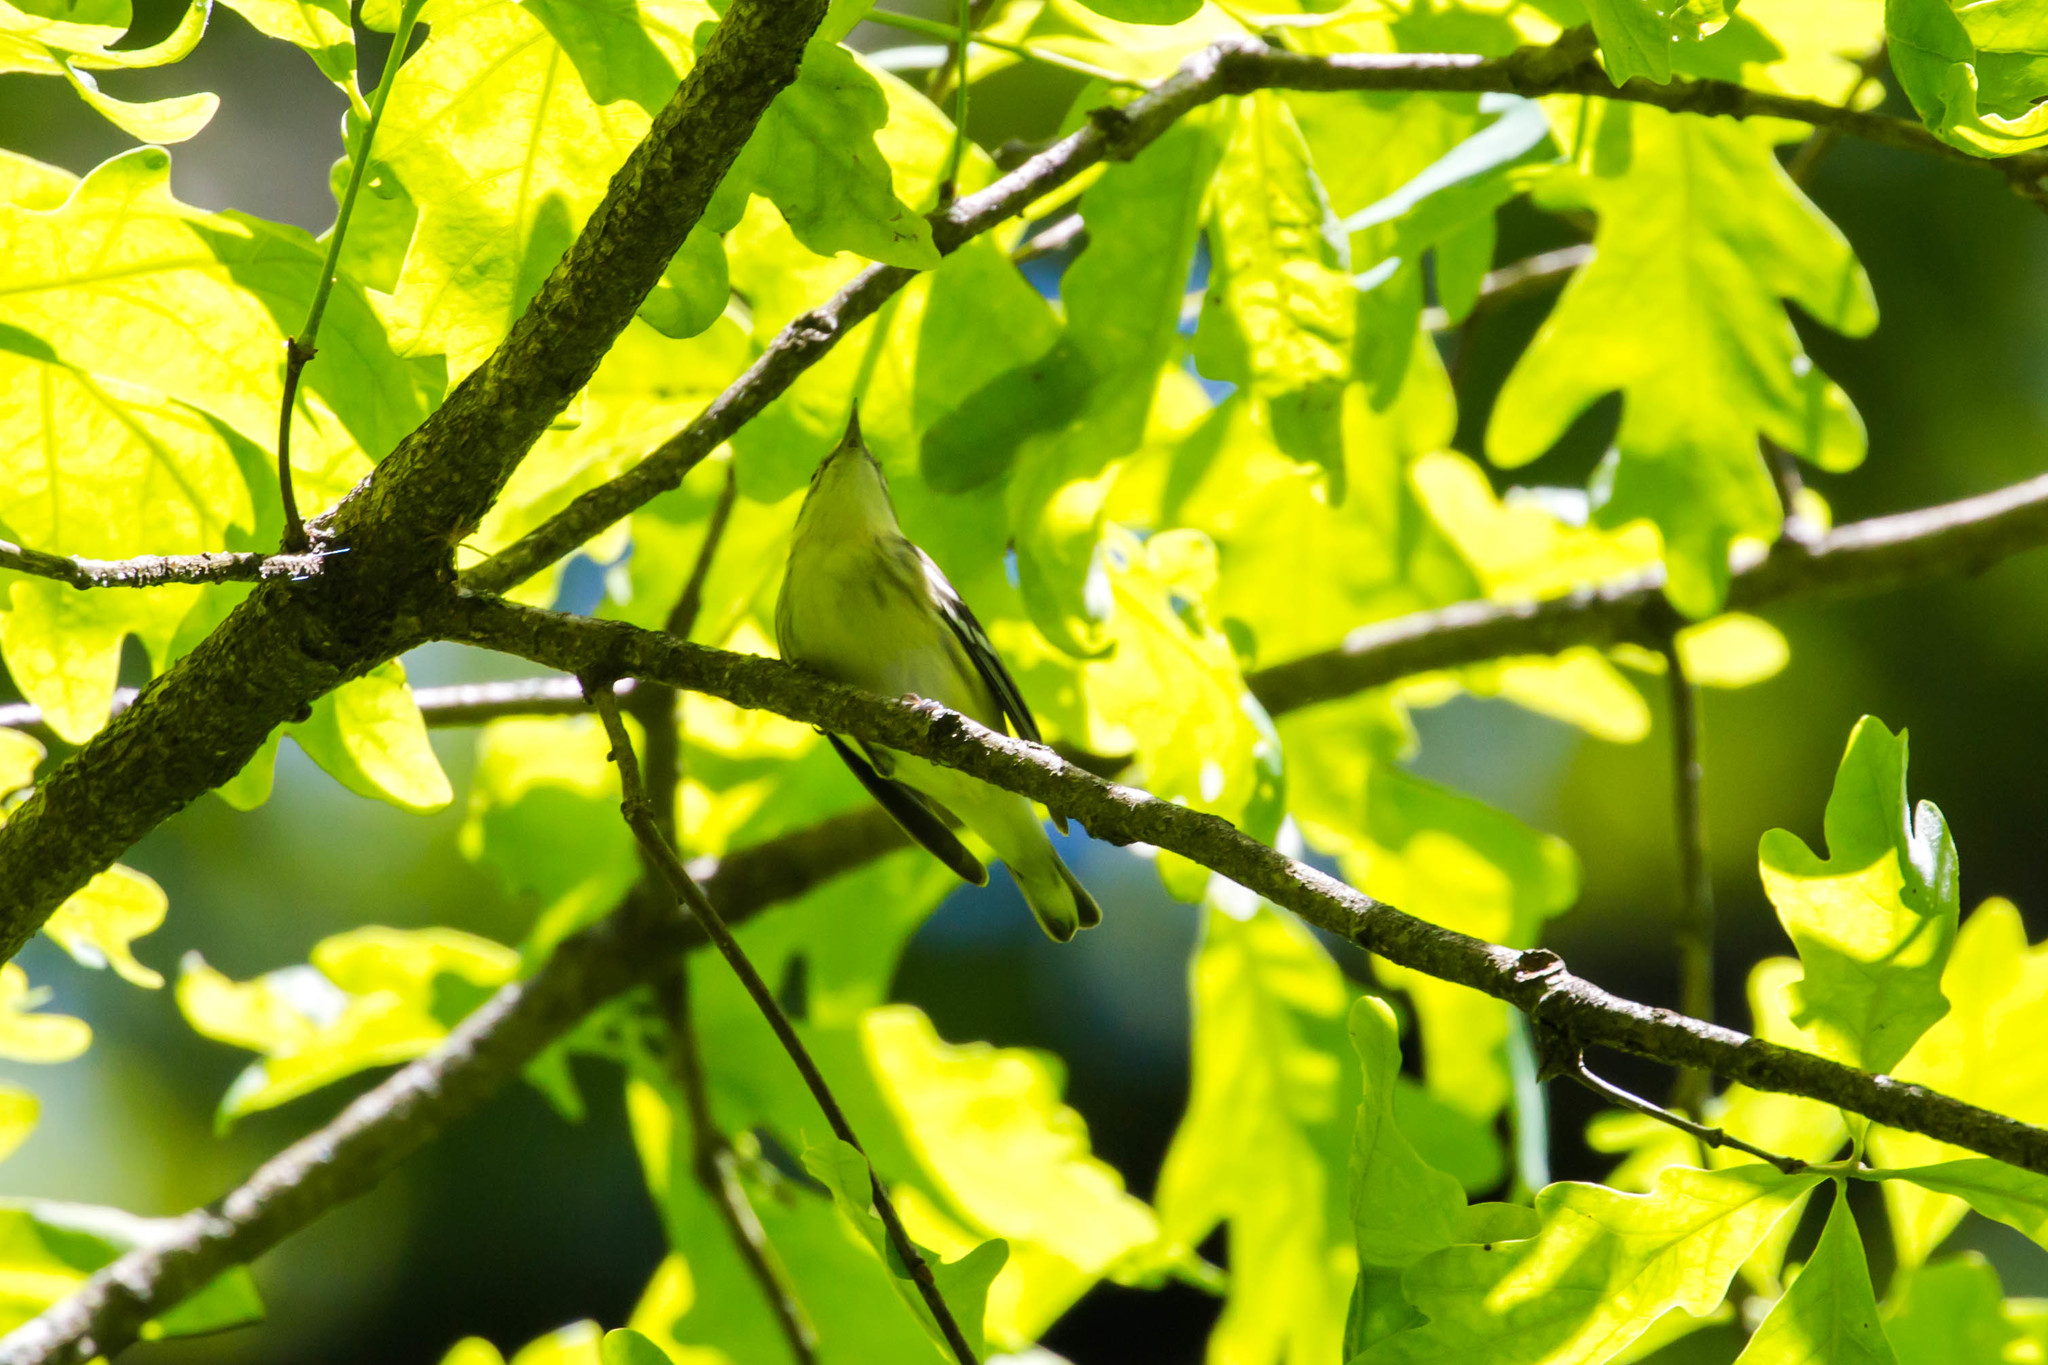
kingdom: Animalia
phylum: Chordata
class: Aves
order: Passeriformes
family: Parulidae
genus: Setophaga
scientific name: Setophaga cerulea
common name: Cerulean warbler
